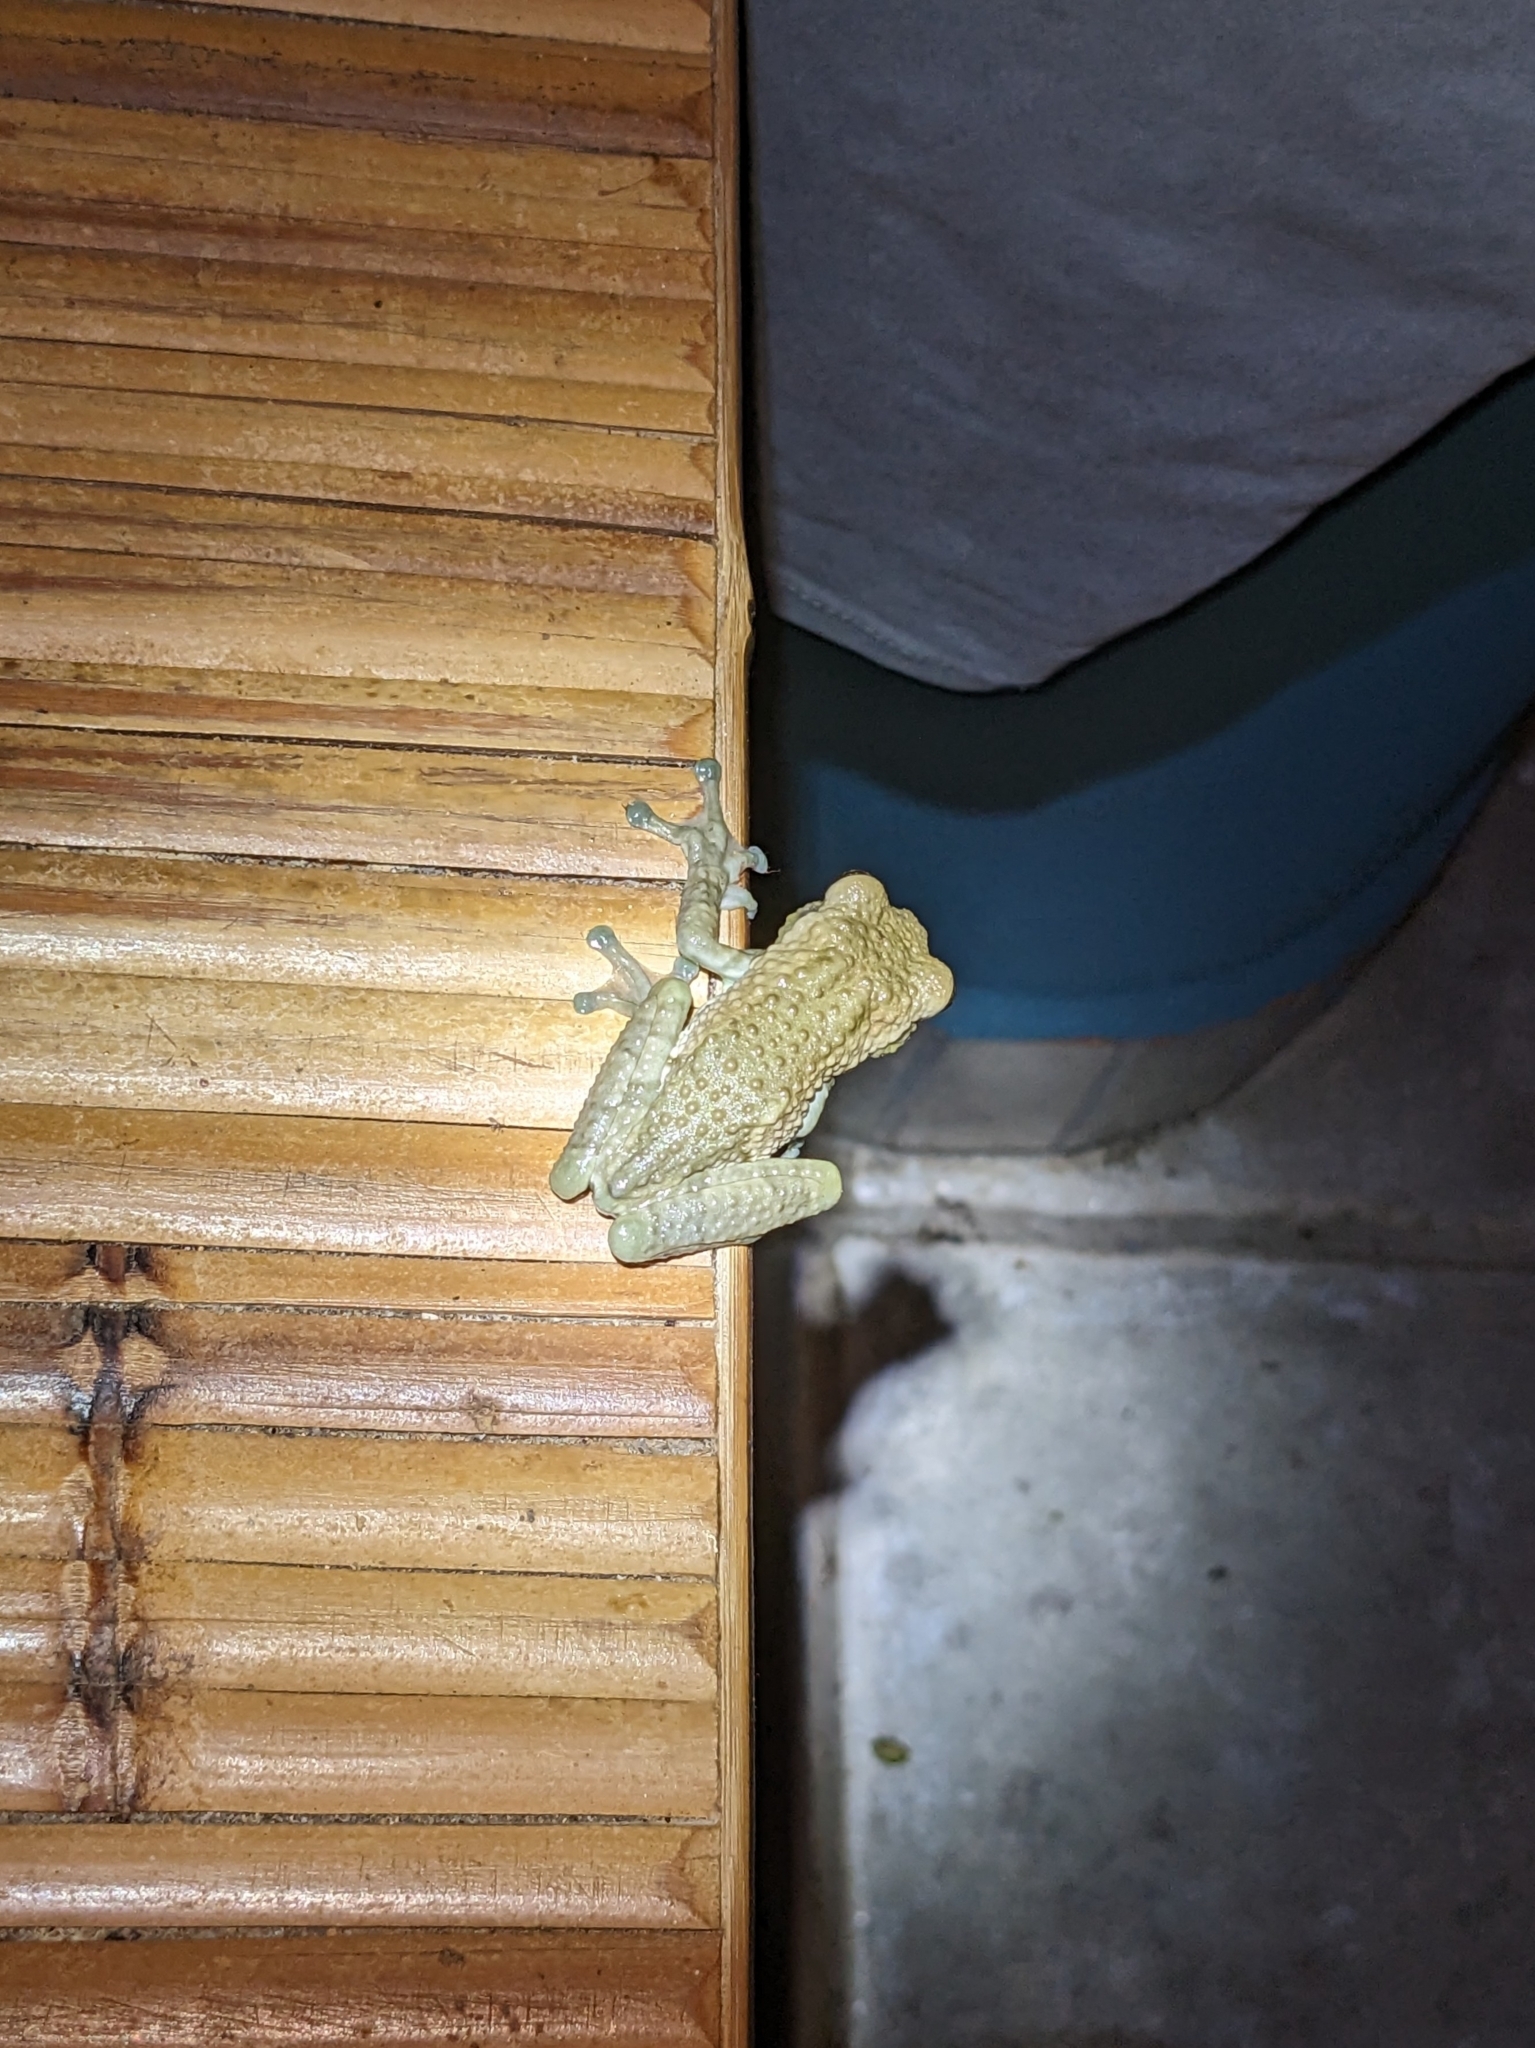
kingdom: Animalia
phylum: Chordata
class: Amphibia
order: Anura
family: Hylidae
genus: Trachycephalus
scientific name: Trachycephalus vermiculatus
